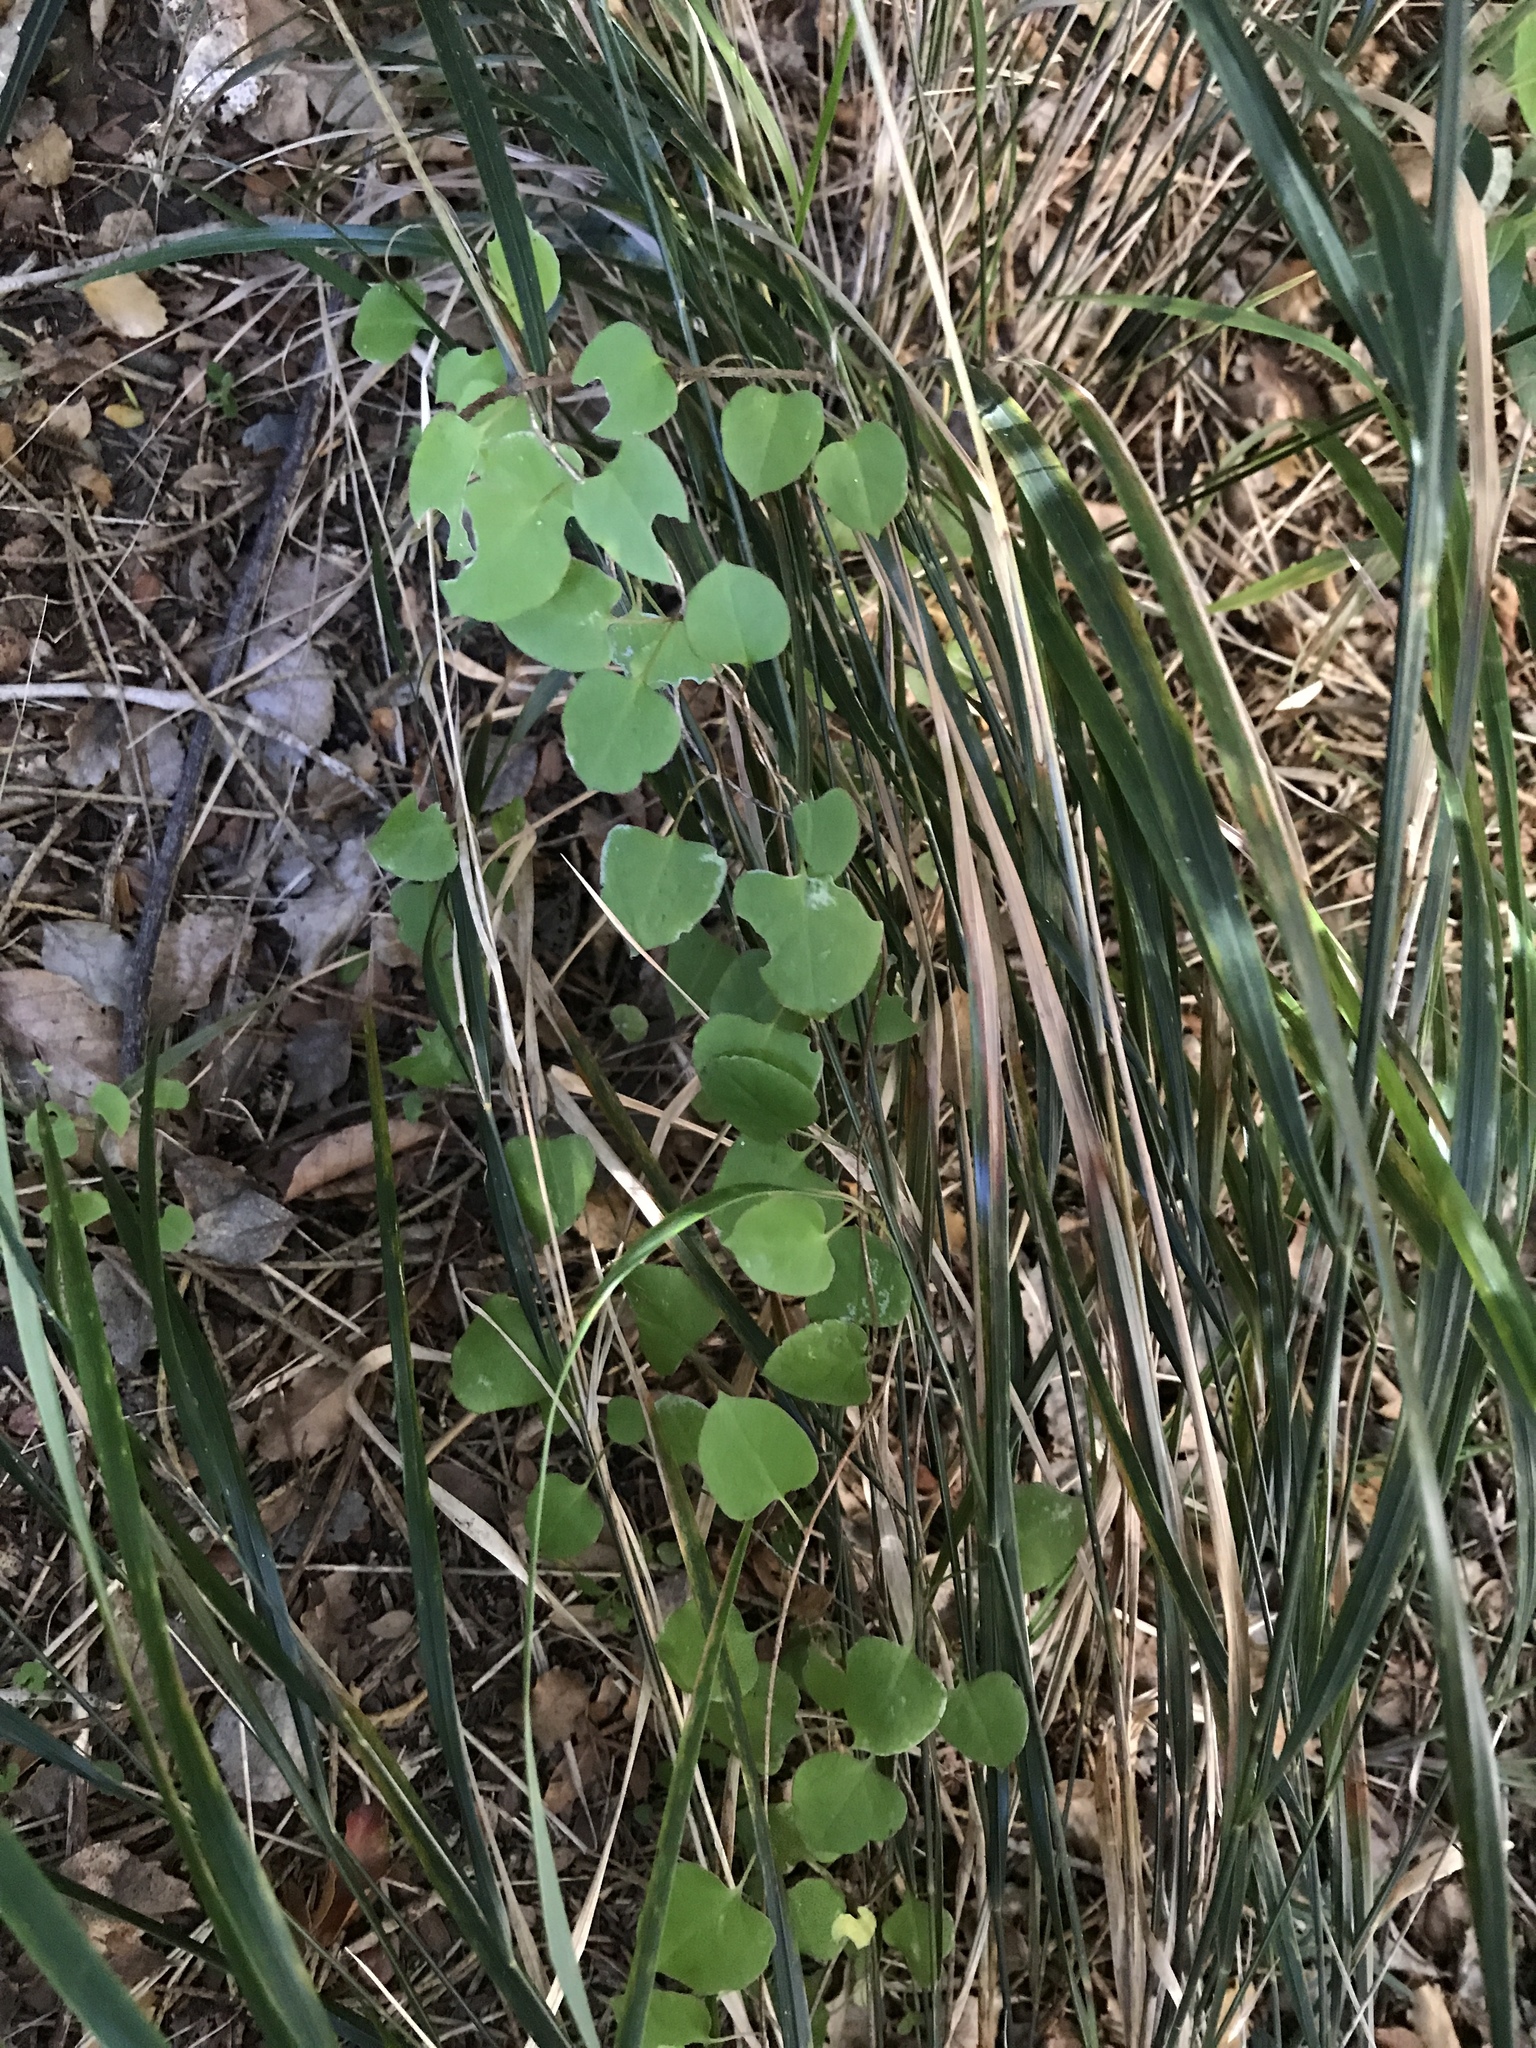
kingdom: Plantae
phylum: Tracheophyta
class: Magnoliopsida
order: Caryophyllales
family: Polygonaceae
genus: Muehlenbeckia
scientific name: Muehlenbeckia australis
